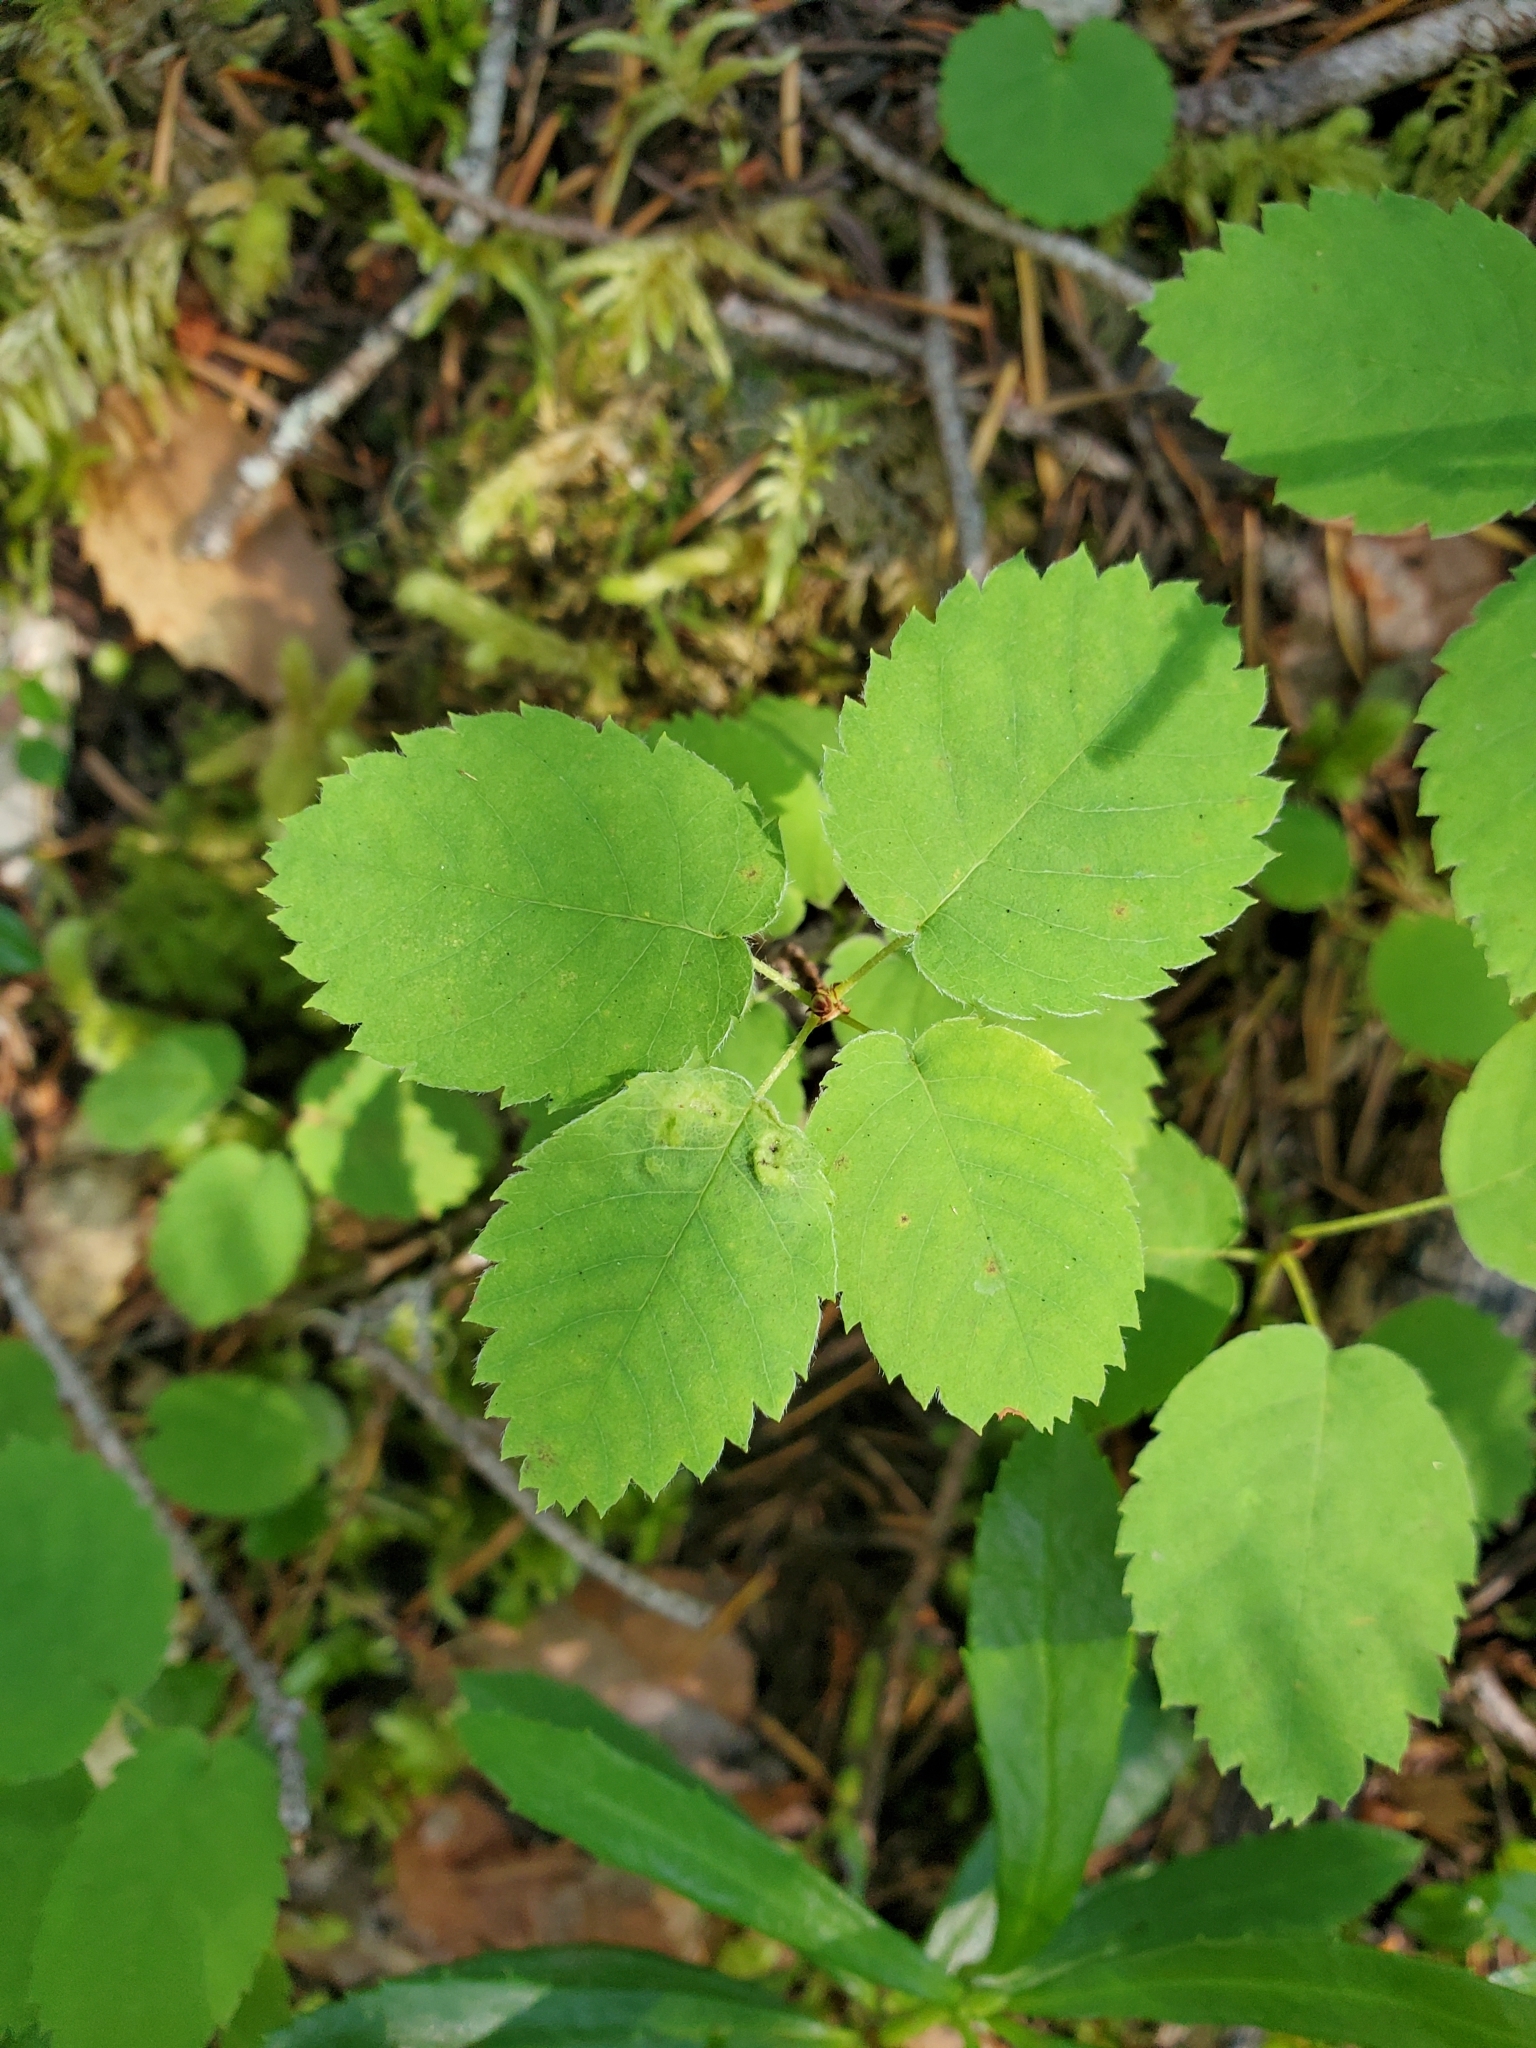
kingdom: Plantae
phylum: Tracheophyta
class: Magnoliopsida
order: Rosales
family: Rosaceae
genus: Amelanchier
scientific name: Amelanchier alnifolia
